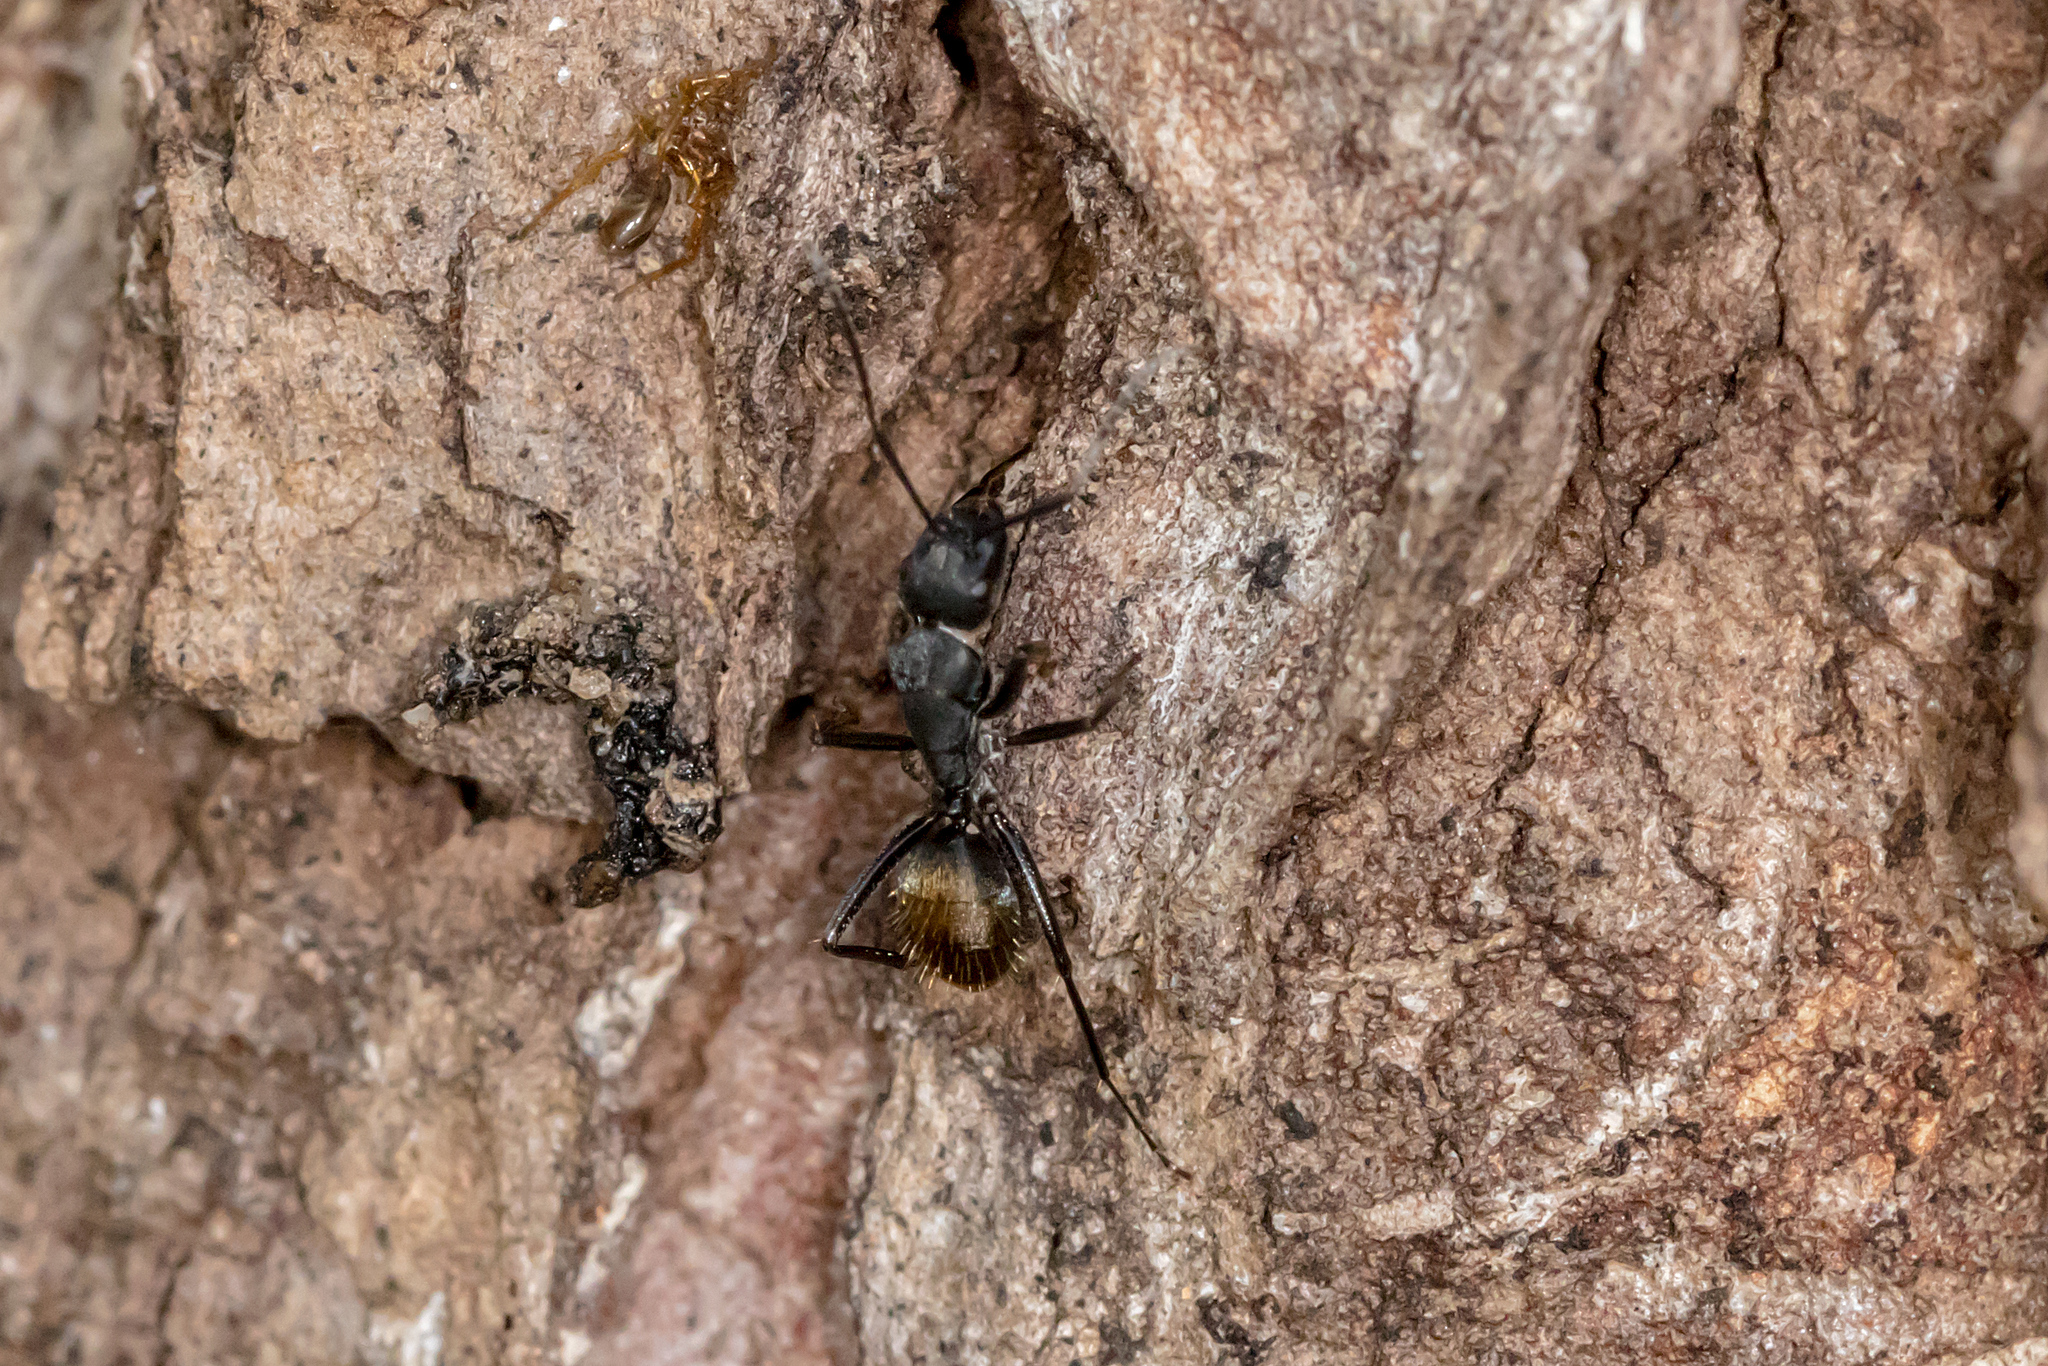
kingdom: Animalia
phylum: Arthropoda
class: Insecta
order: Hymenoptera
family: Formicidae
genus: Camponotus
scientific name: Camponotus aeneopilosus
